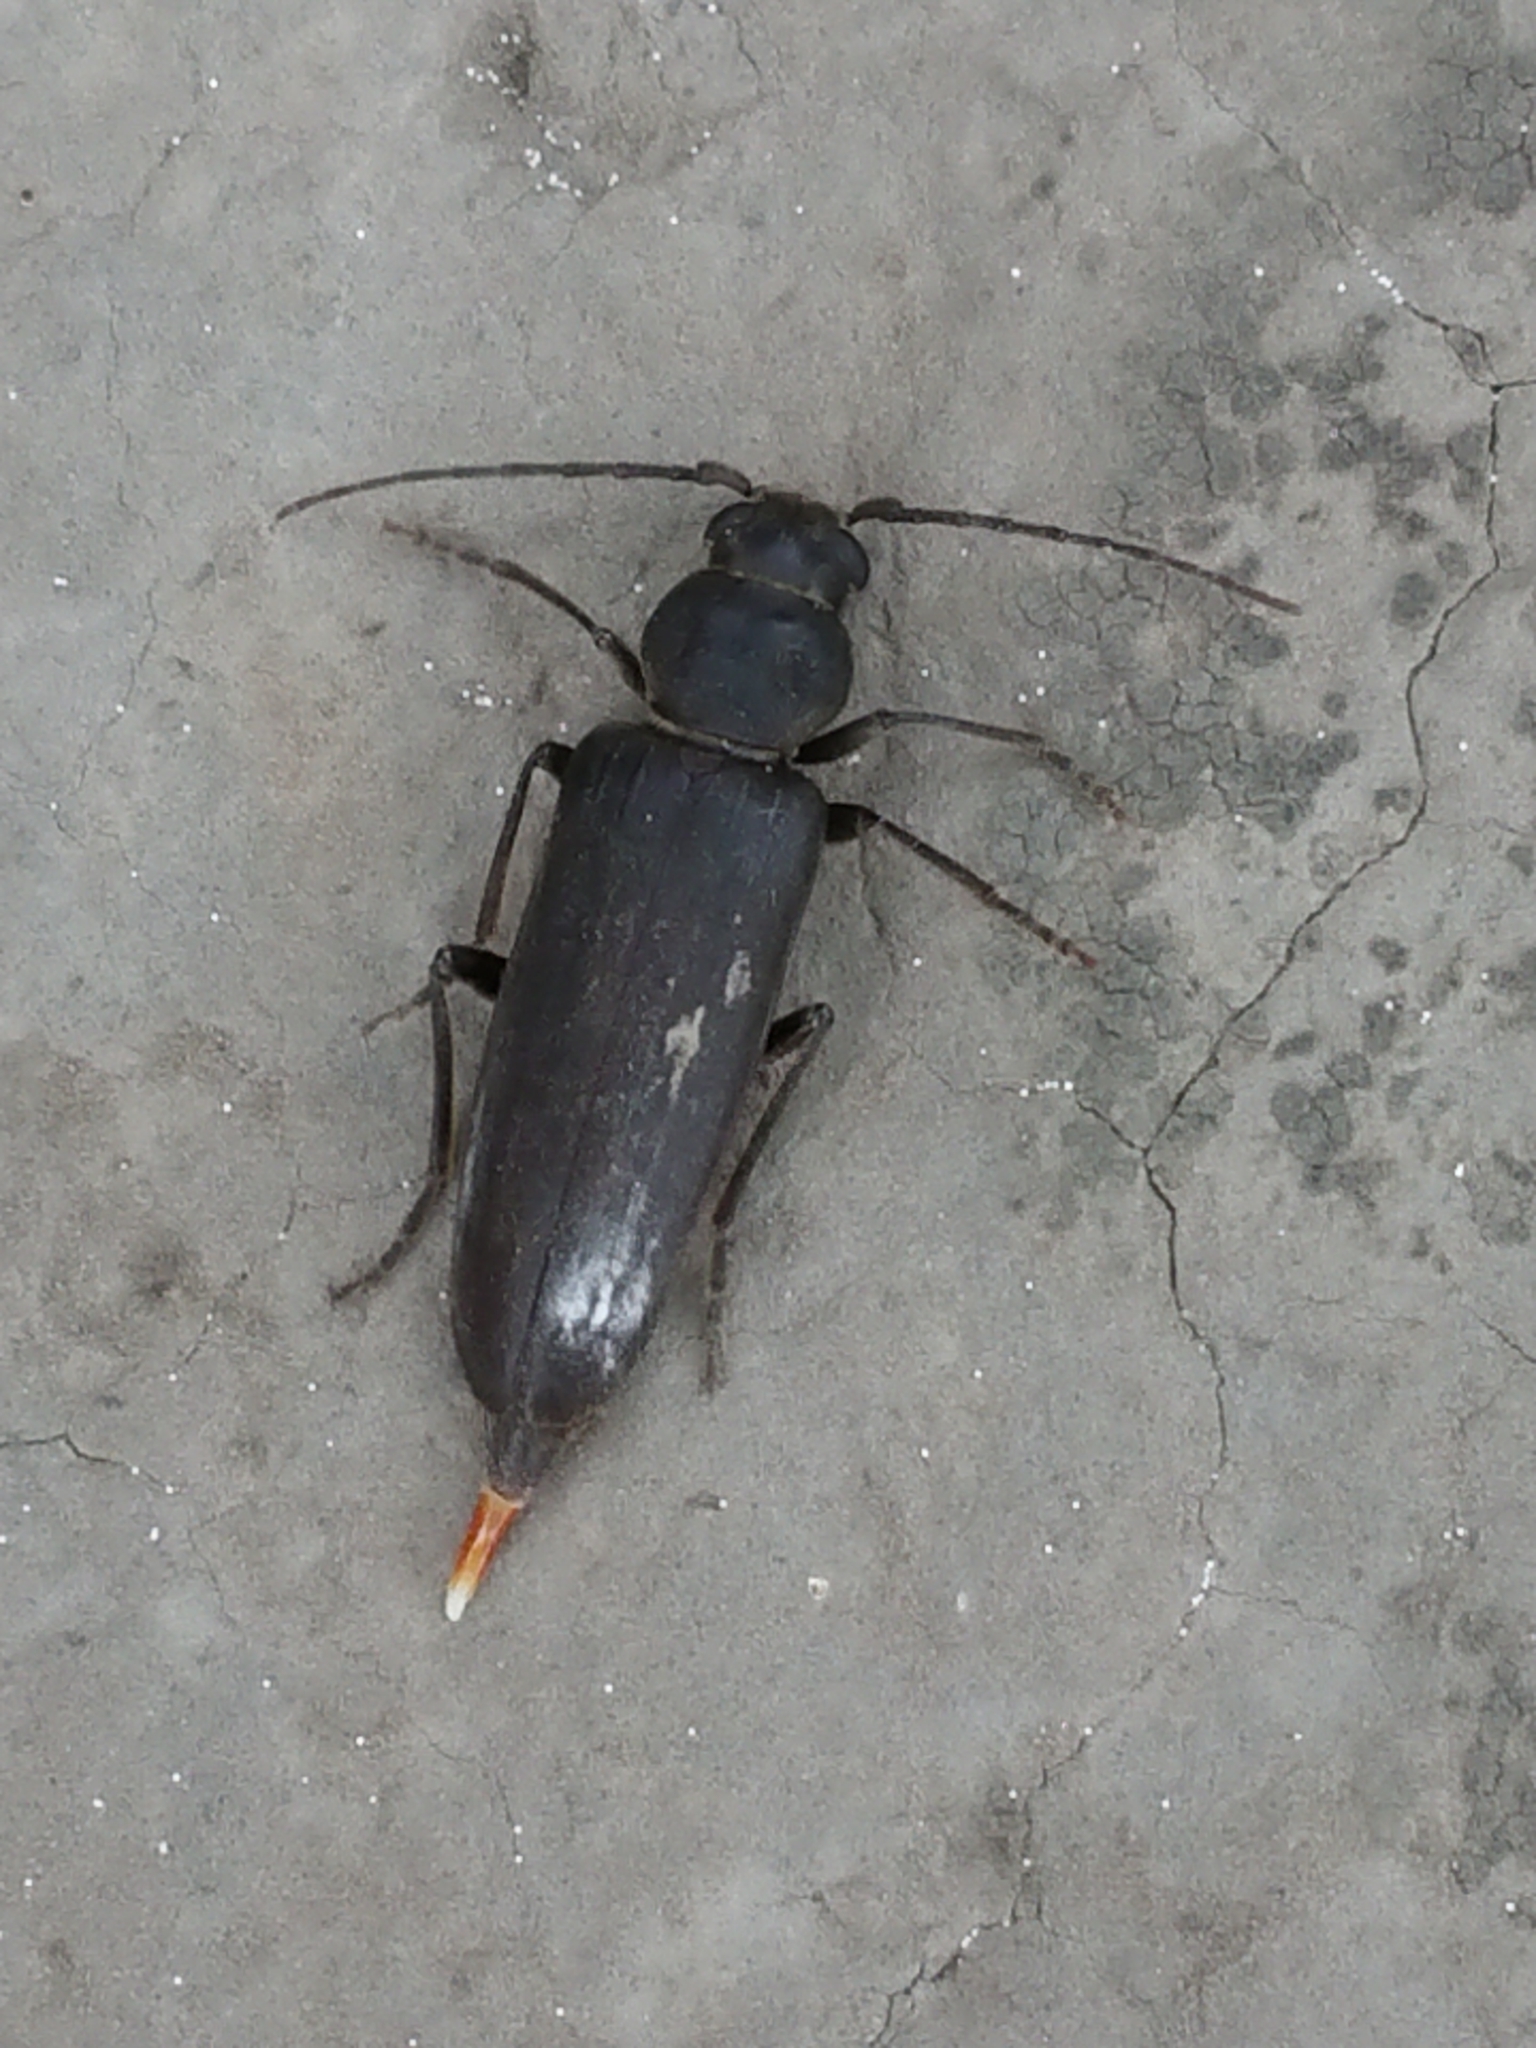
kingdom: Animalia
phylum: Arthropoda
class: Insecta
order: Coleoptera
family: Cerambycidae
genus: Arhopalus
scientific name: Arhopalus ferus
